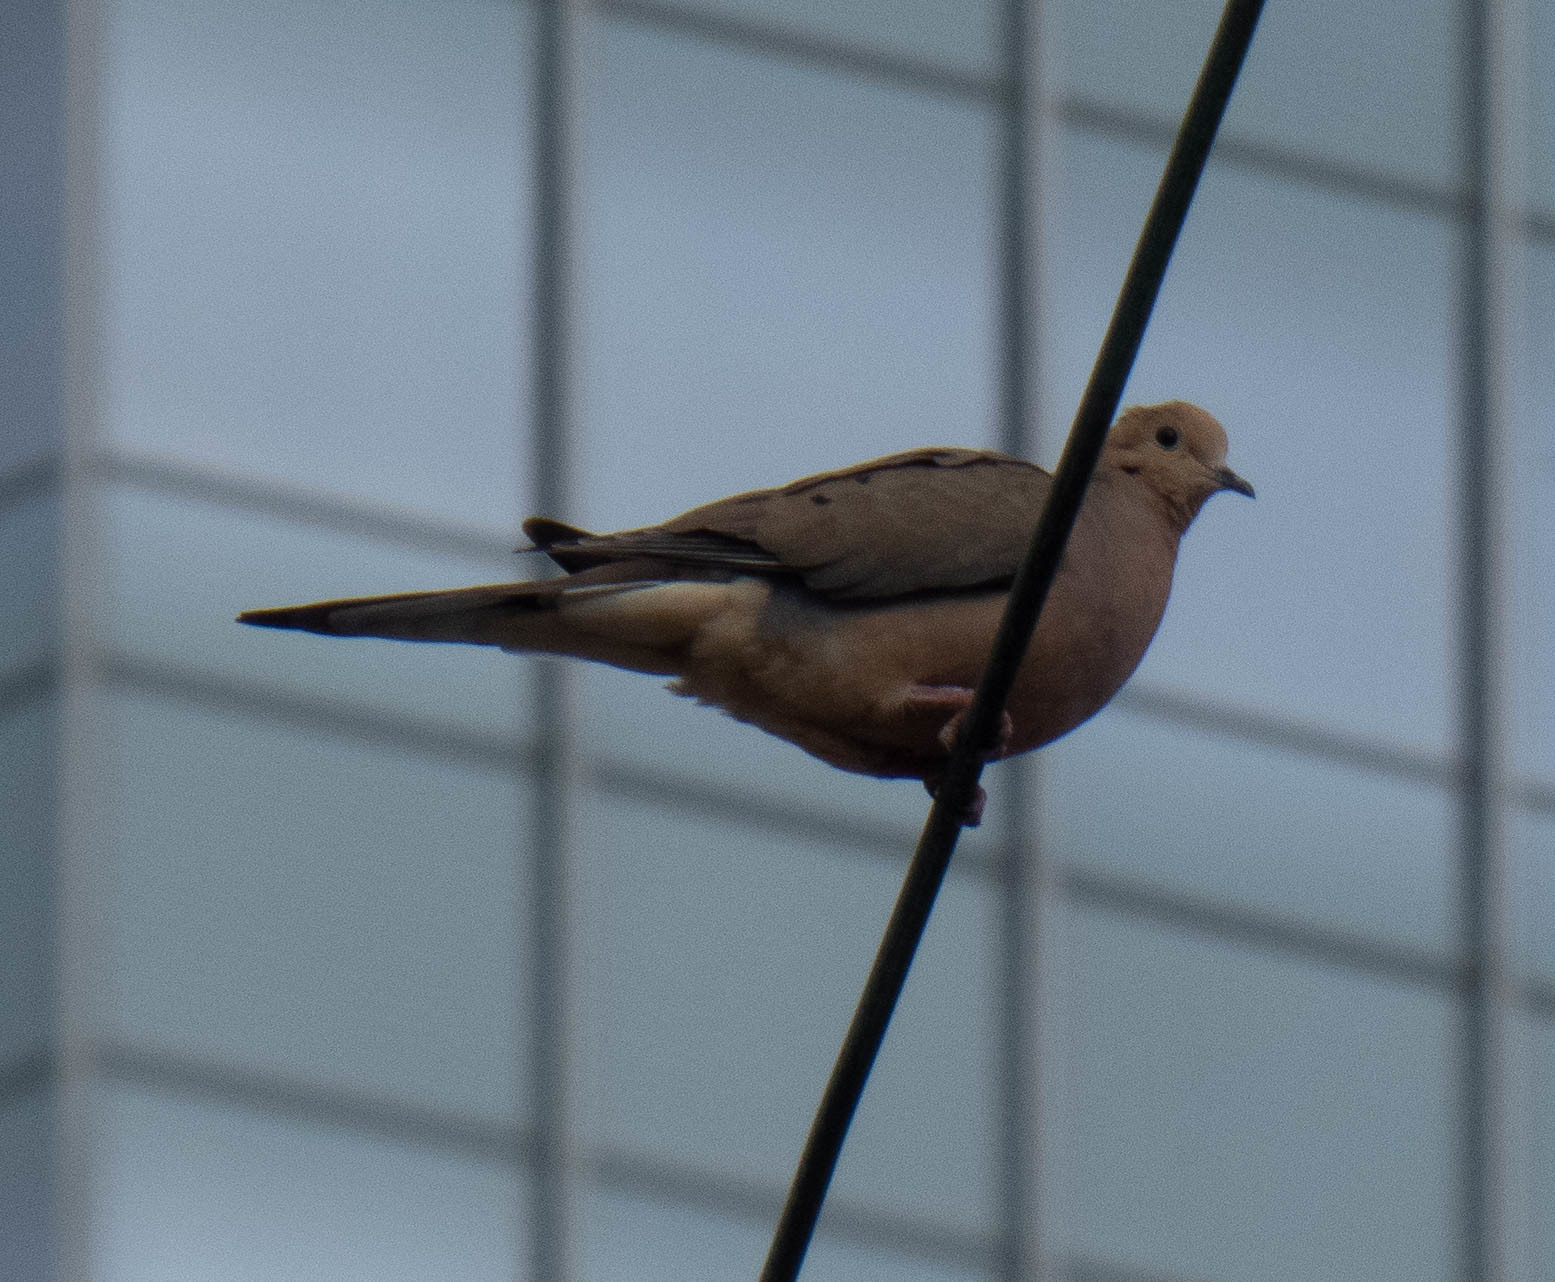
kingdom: Animalia
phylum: Chordata
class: Aves
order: Columbiformes
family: Columbidae
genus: Zenaida
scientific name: Zenaida macroura
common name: Mourning dove
